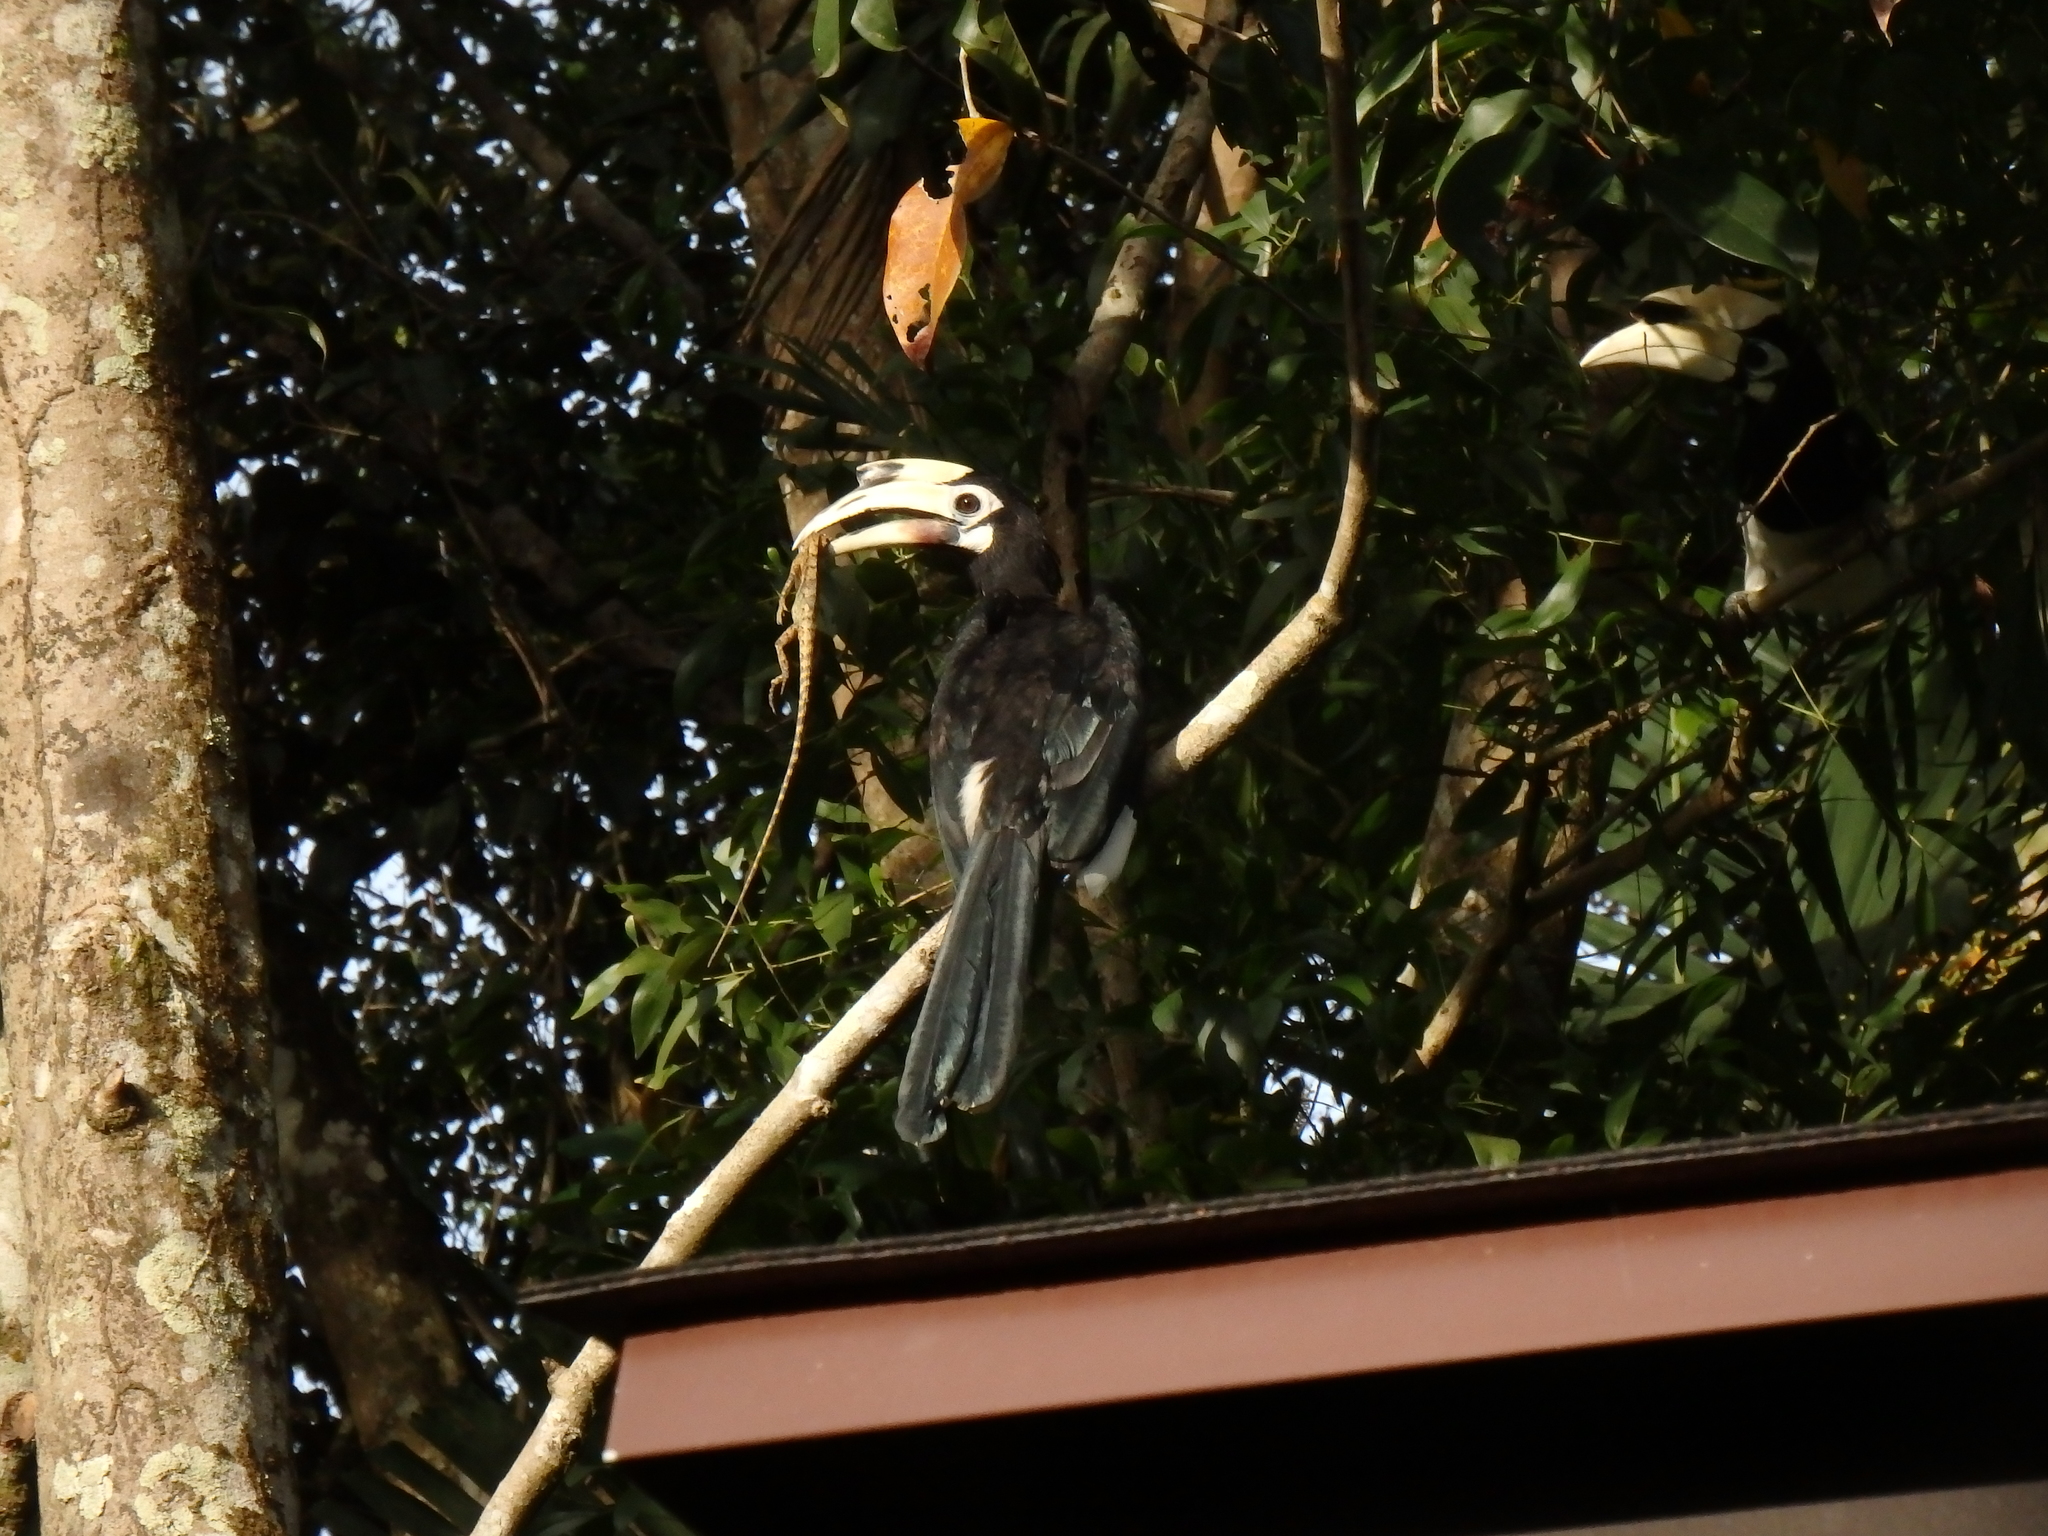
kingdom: Animalia
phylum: Chordata
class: Aves
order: Bucerotiformes
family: Bucerotidae
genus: Anthracoceros
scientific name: Anthracoceros albirostris
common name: Oriental pied-hornbill
